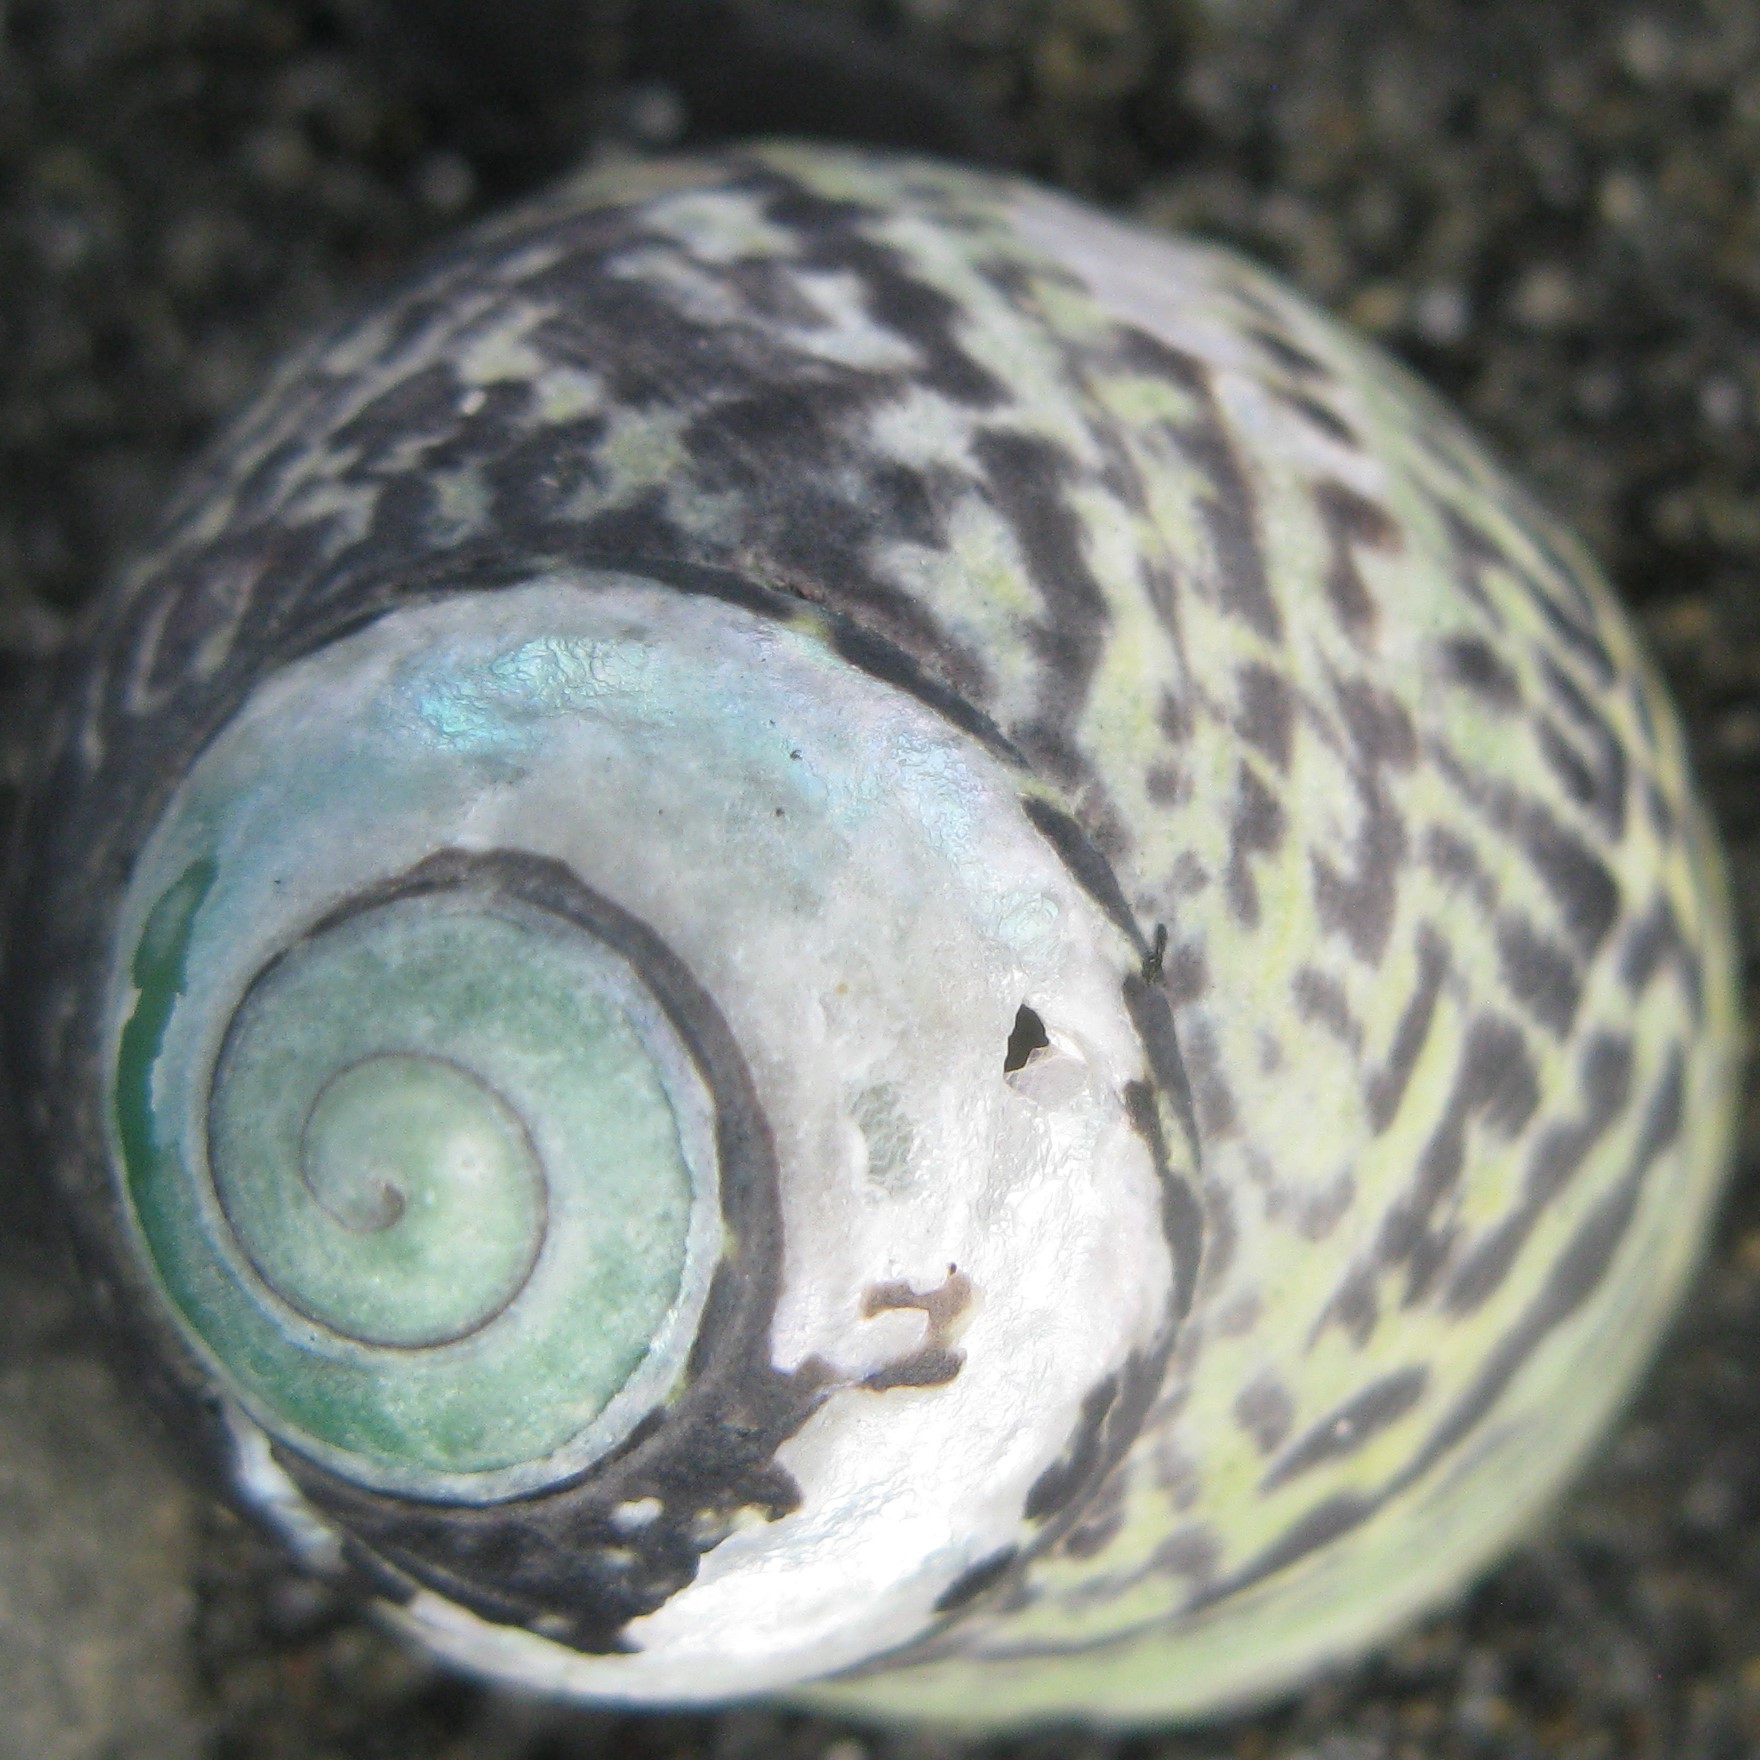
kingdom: Animalia
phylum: Mollusca
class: Gastropoda
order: Trochida
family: Trochidae
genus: Diloma
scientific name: Diloma subrostratum
